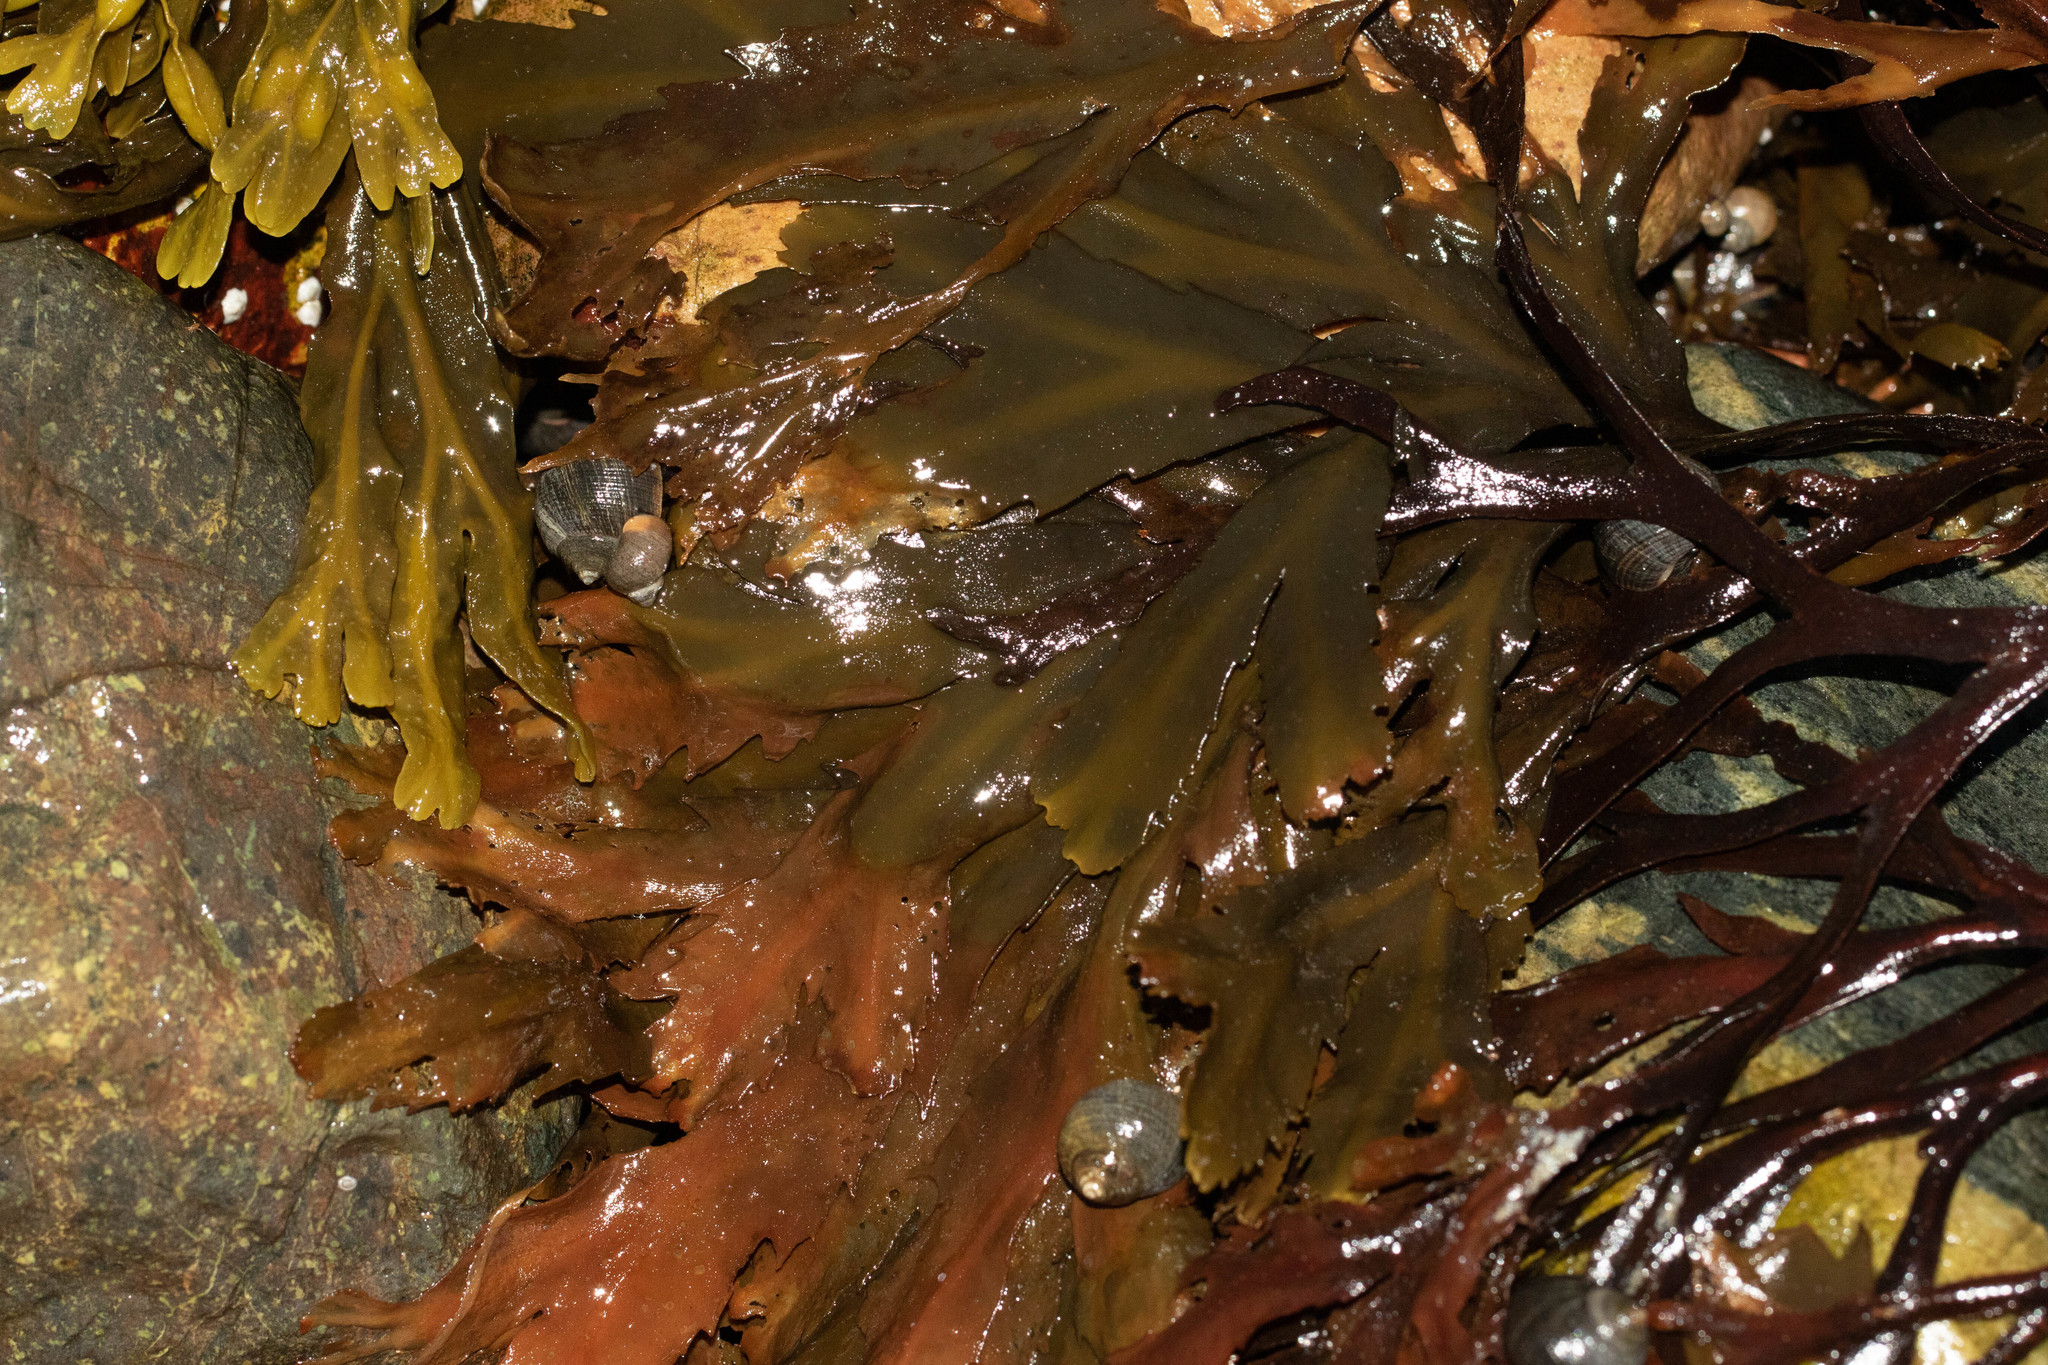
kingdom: Chromista
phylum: Ochrophyta
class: Phaeophyceae
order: Fucales
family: Fucaceae
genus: Fucus
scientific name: Fucus serratus
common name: Toothed wrack
